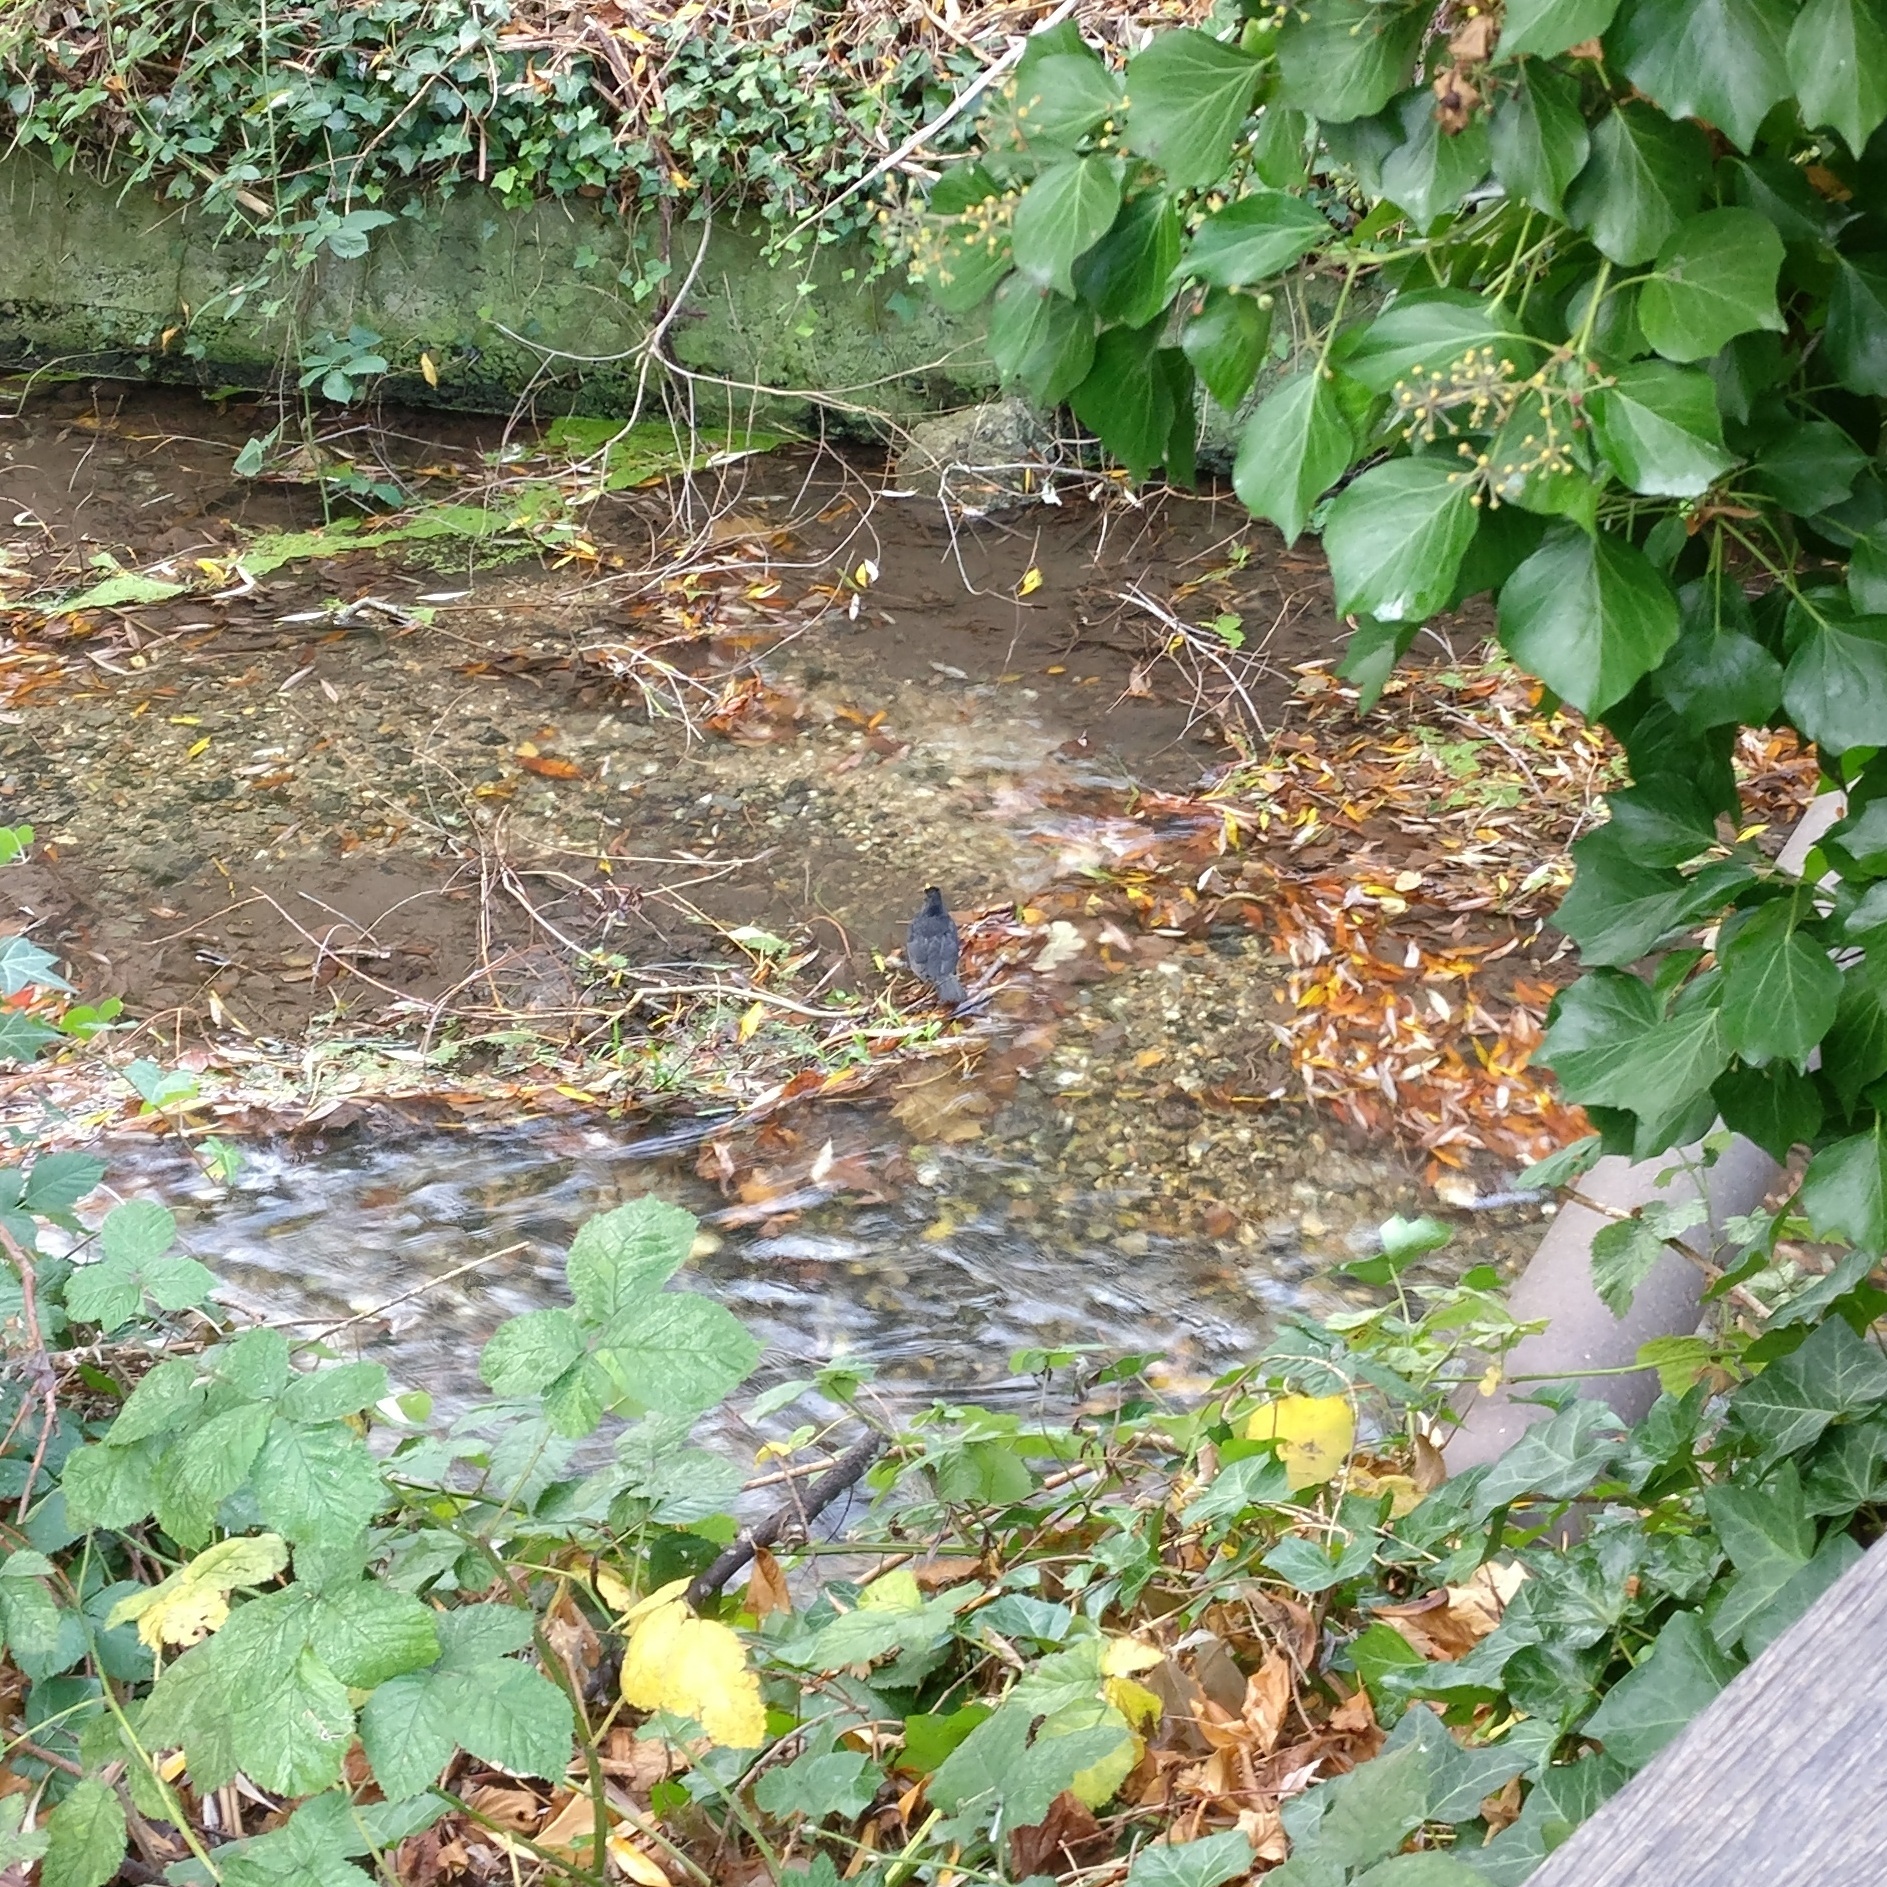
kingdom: Animalia
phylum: Chordata
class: Aves
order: Passeriformes
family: Turdidae
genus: Turdus
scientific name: Turdus merula
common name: Common blackbird
